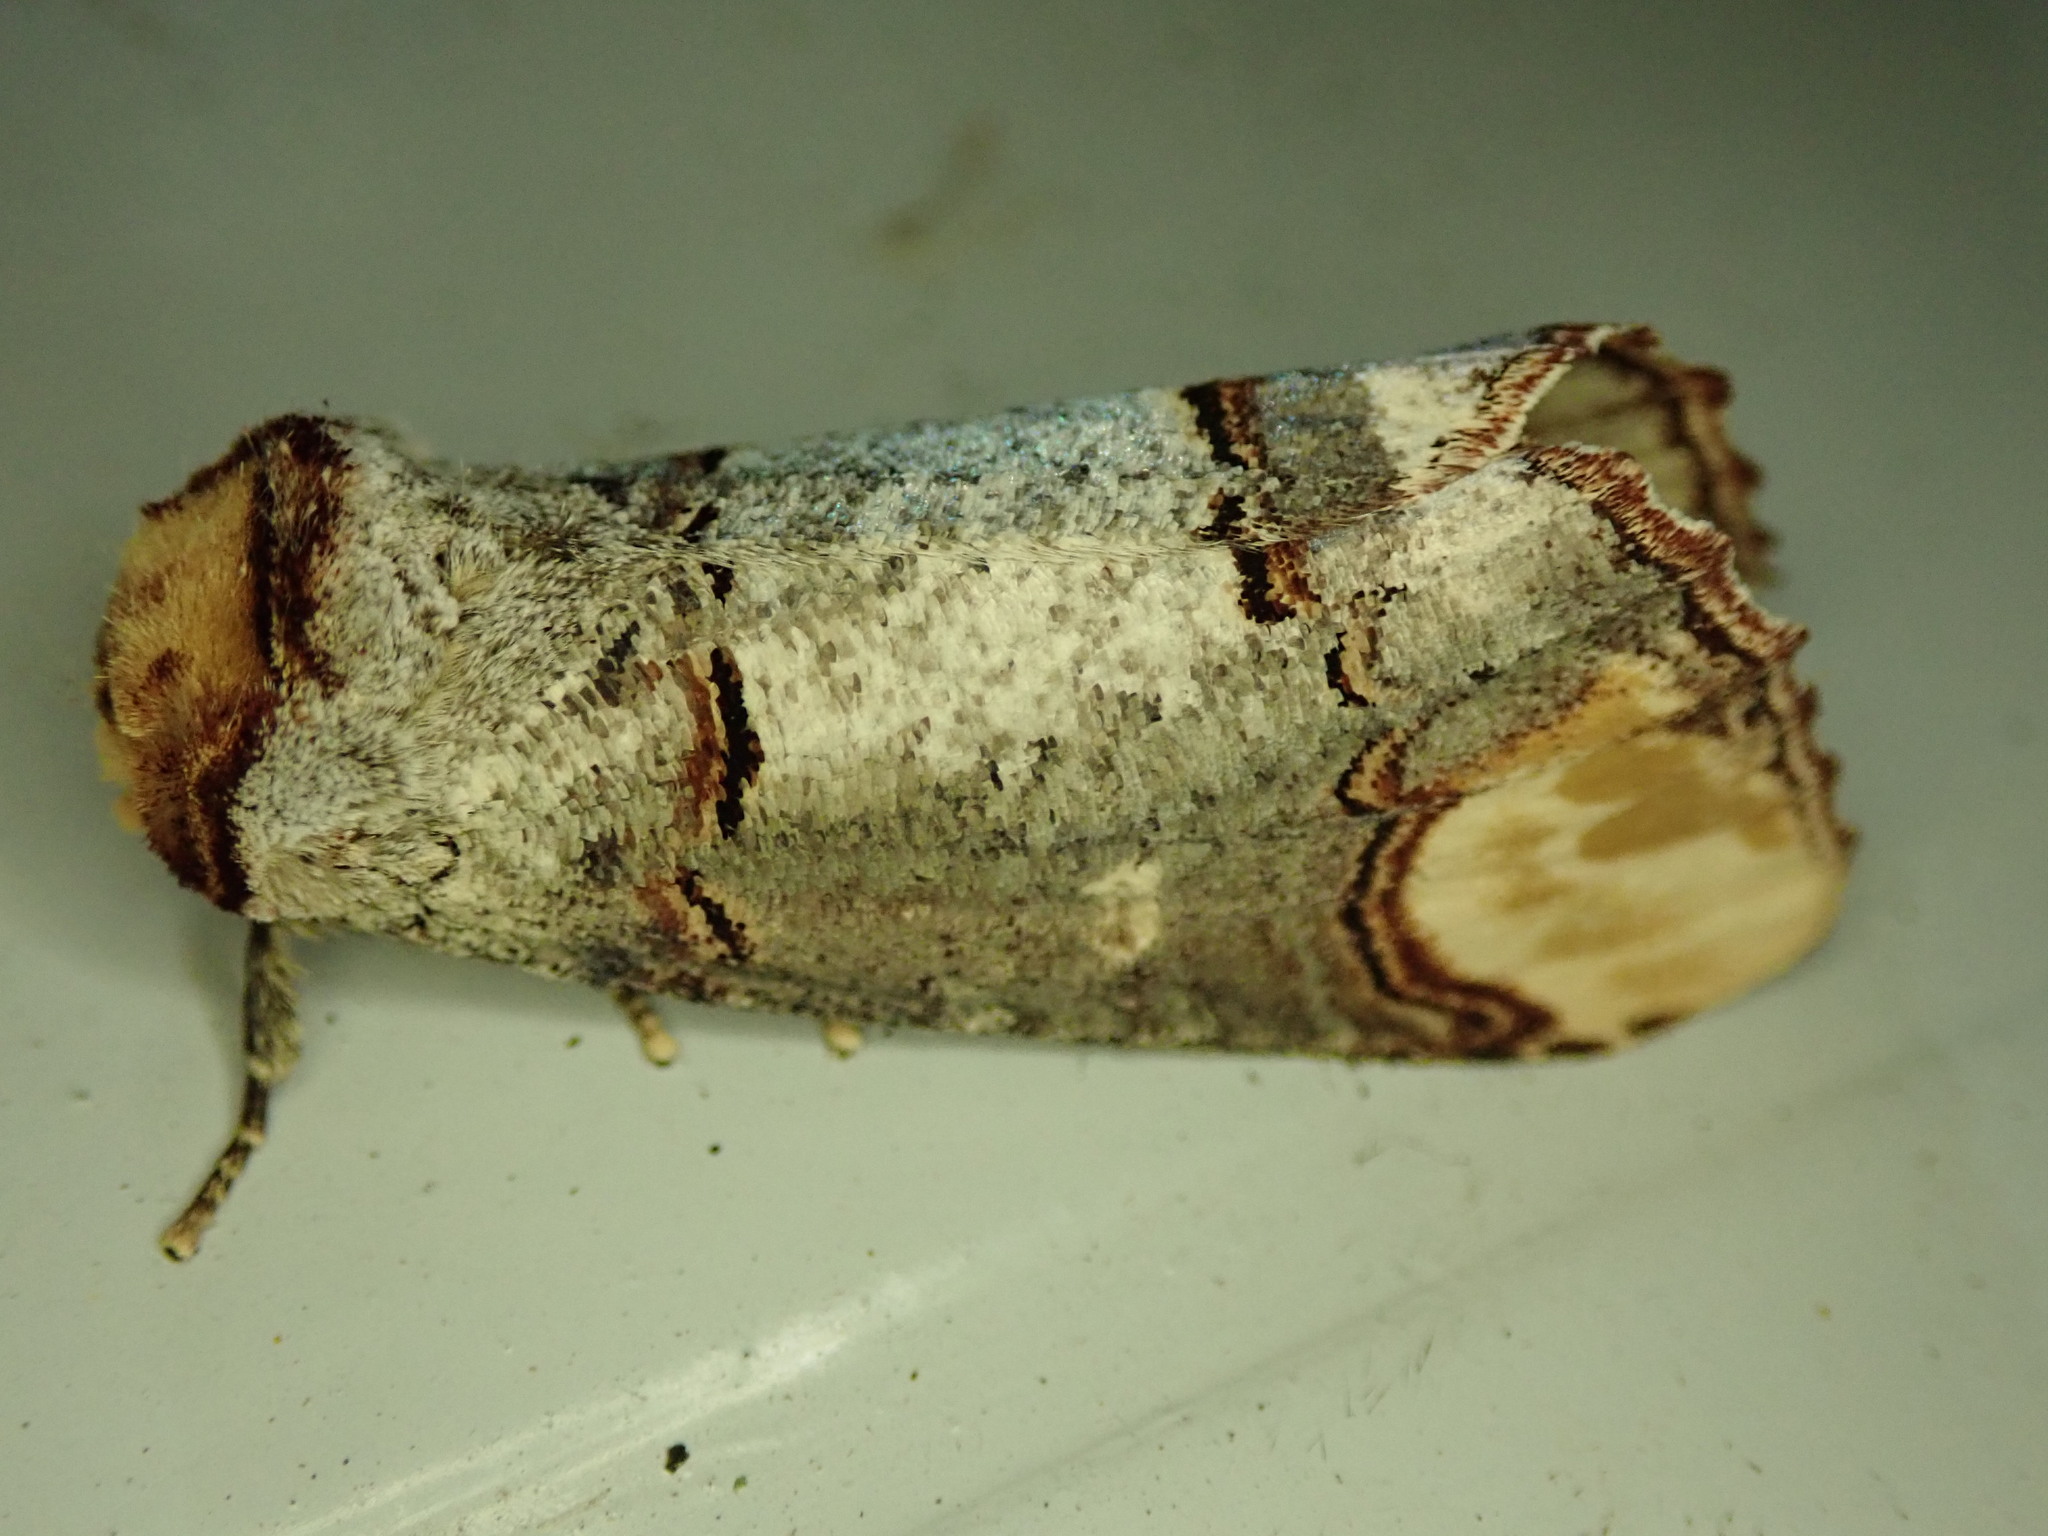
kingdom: Animalia
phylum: Arthropoda
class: Insecta
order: Lepidoptera
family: Notodontidae
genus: Phalera
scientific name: Phalera bucephala
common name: Buff-tip
